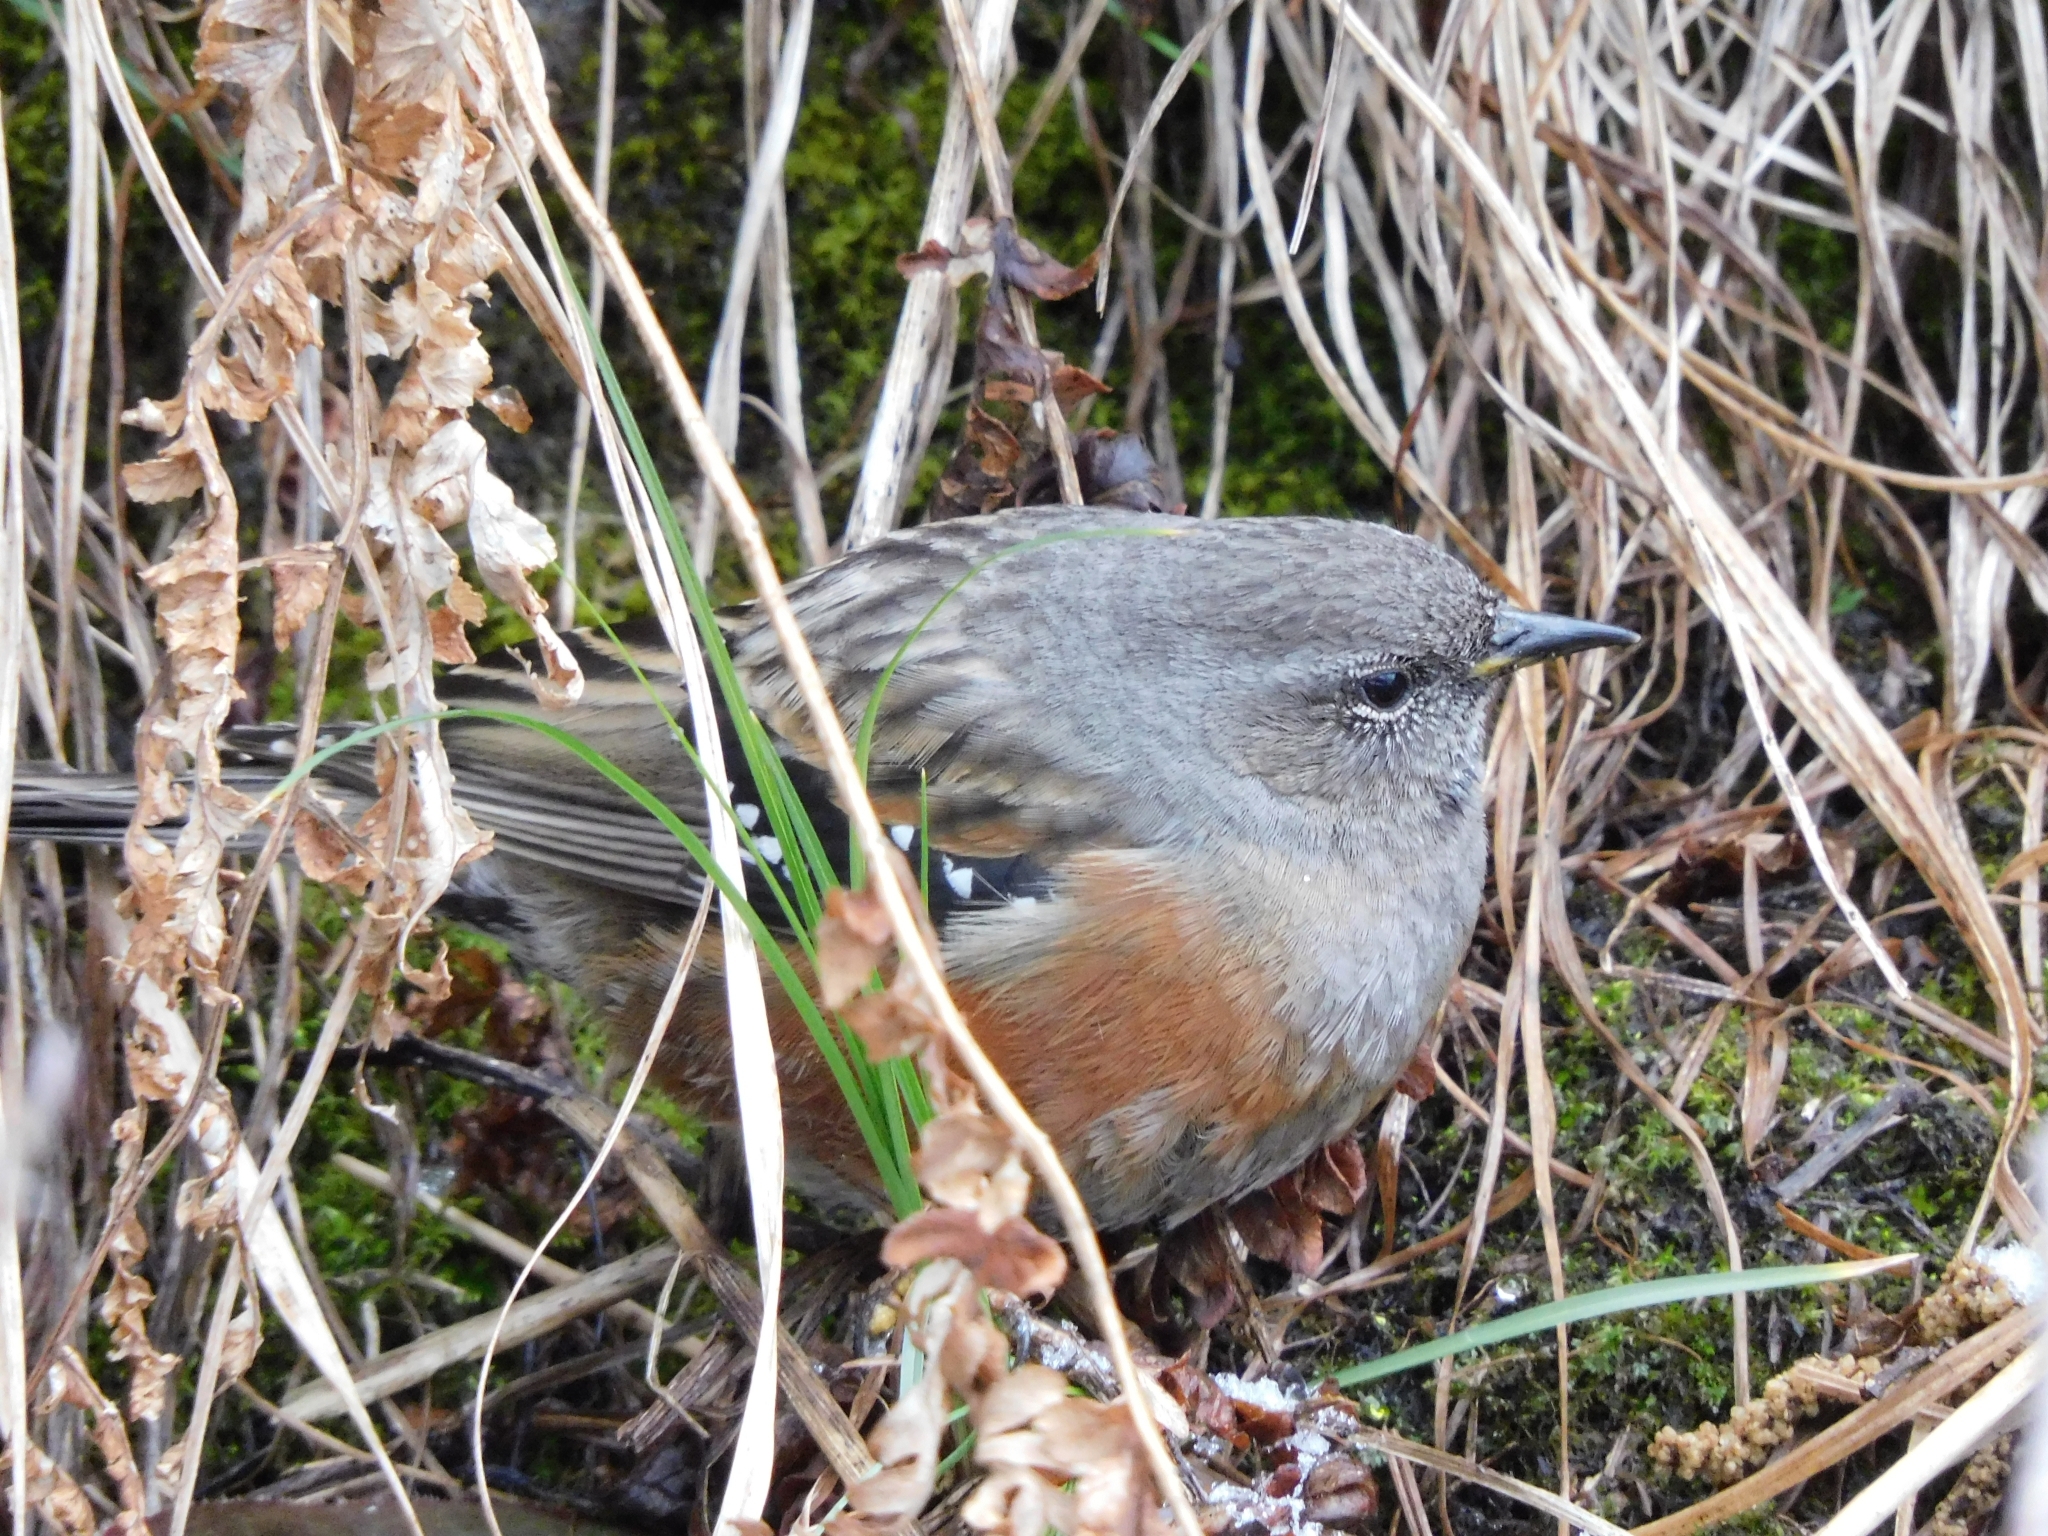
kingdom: Animalia
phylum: Chordata
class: Aves
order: Passeriformes
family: Prunellidae
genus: Prunella
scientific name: Prunella collaris
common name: Alpine accentor
